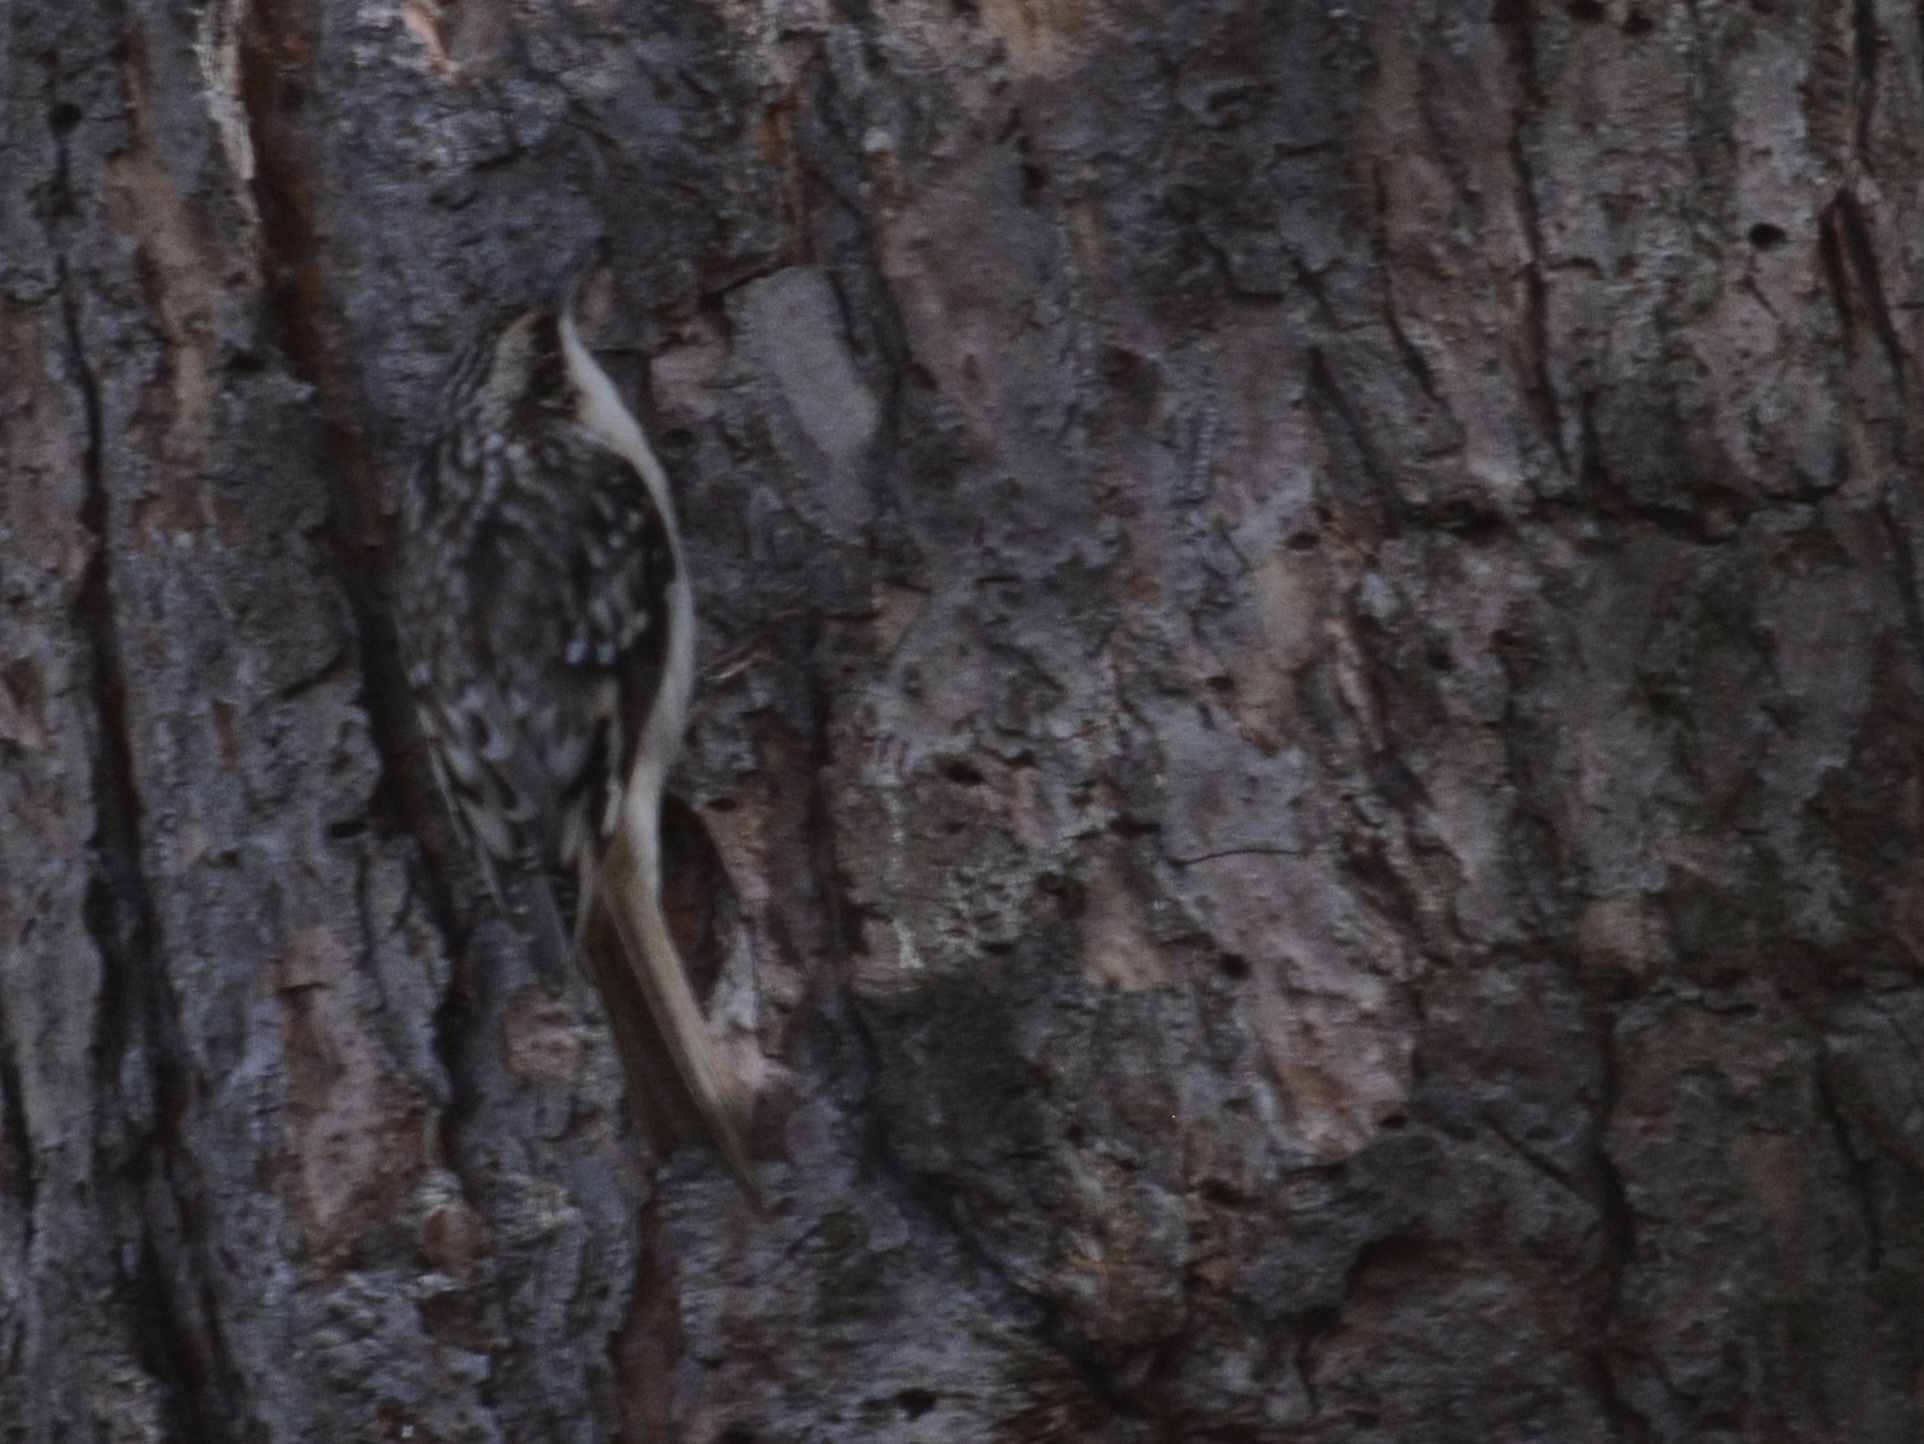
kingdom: Animalia
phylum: Chordata
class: Aves
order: Passeriformes
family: Certhiidae
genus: Certhia
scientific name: Certhia americana
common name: Brown creeper
